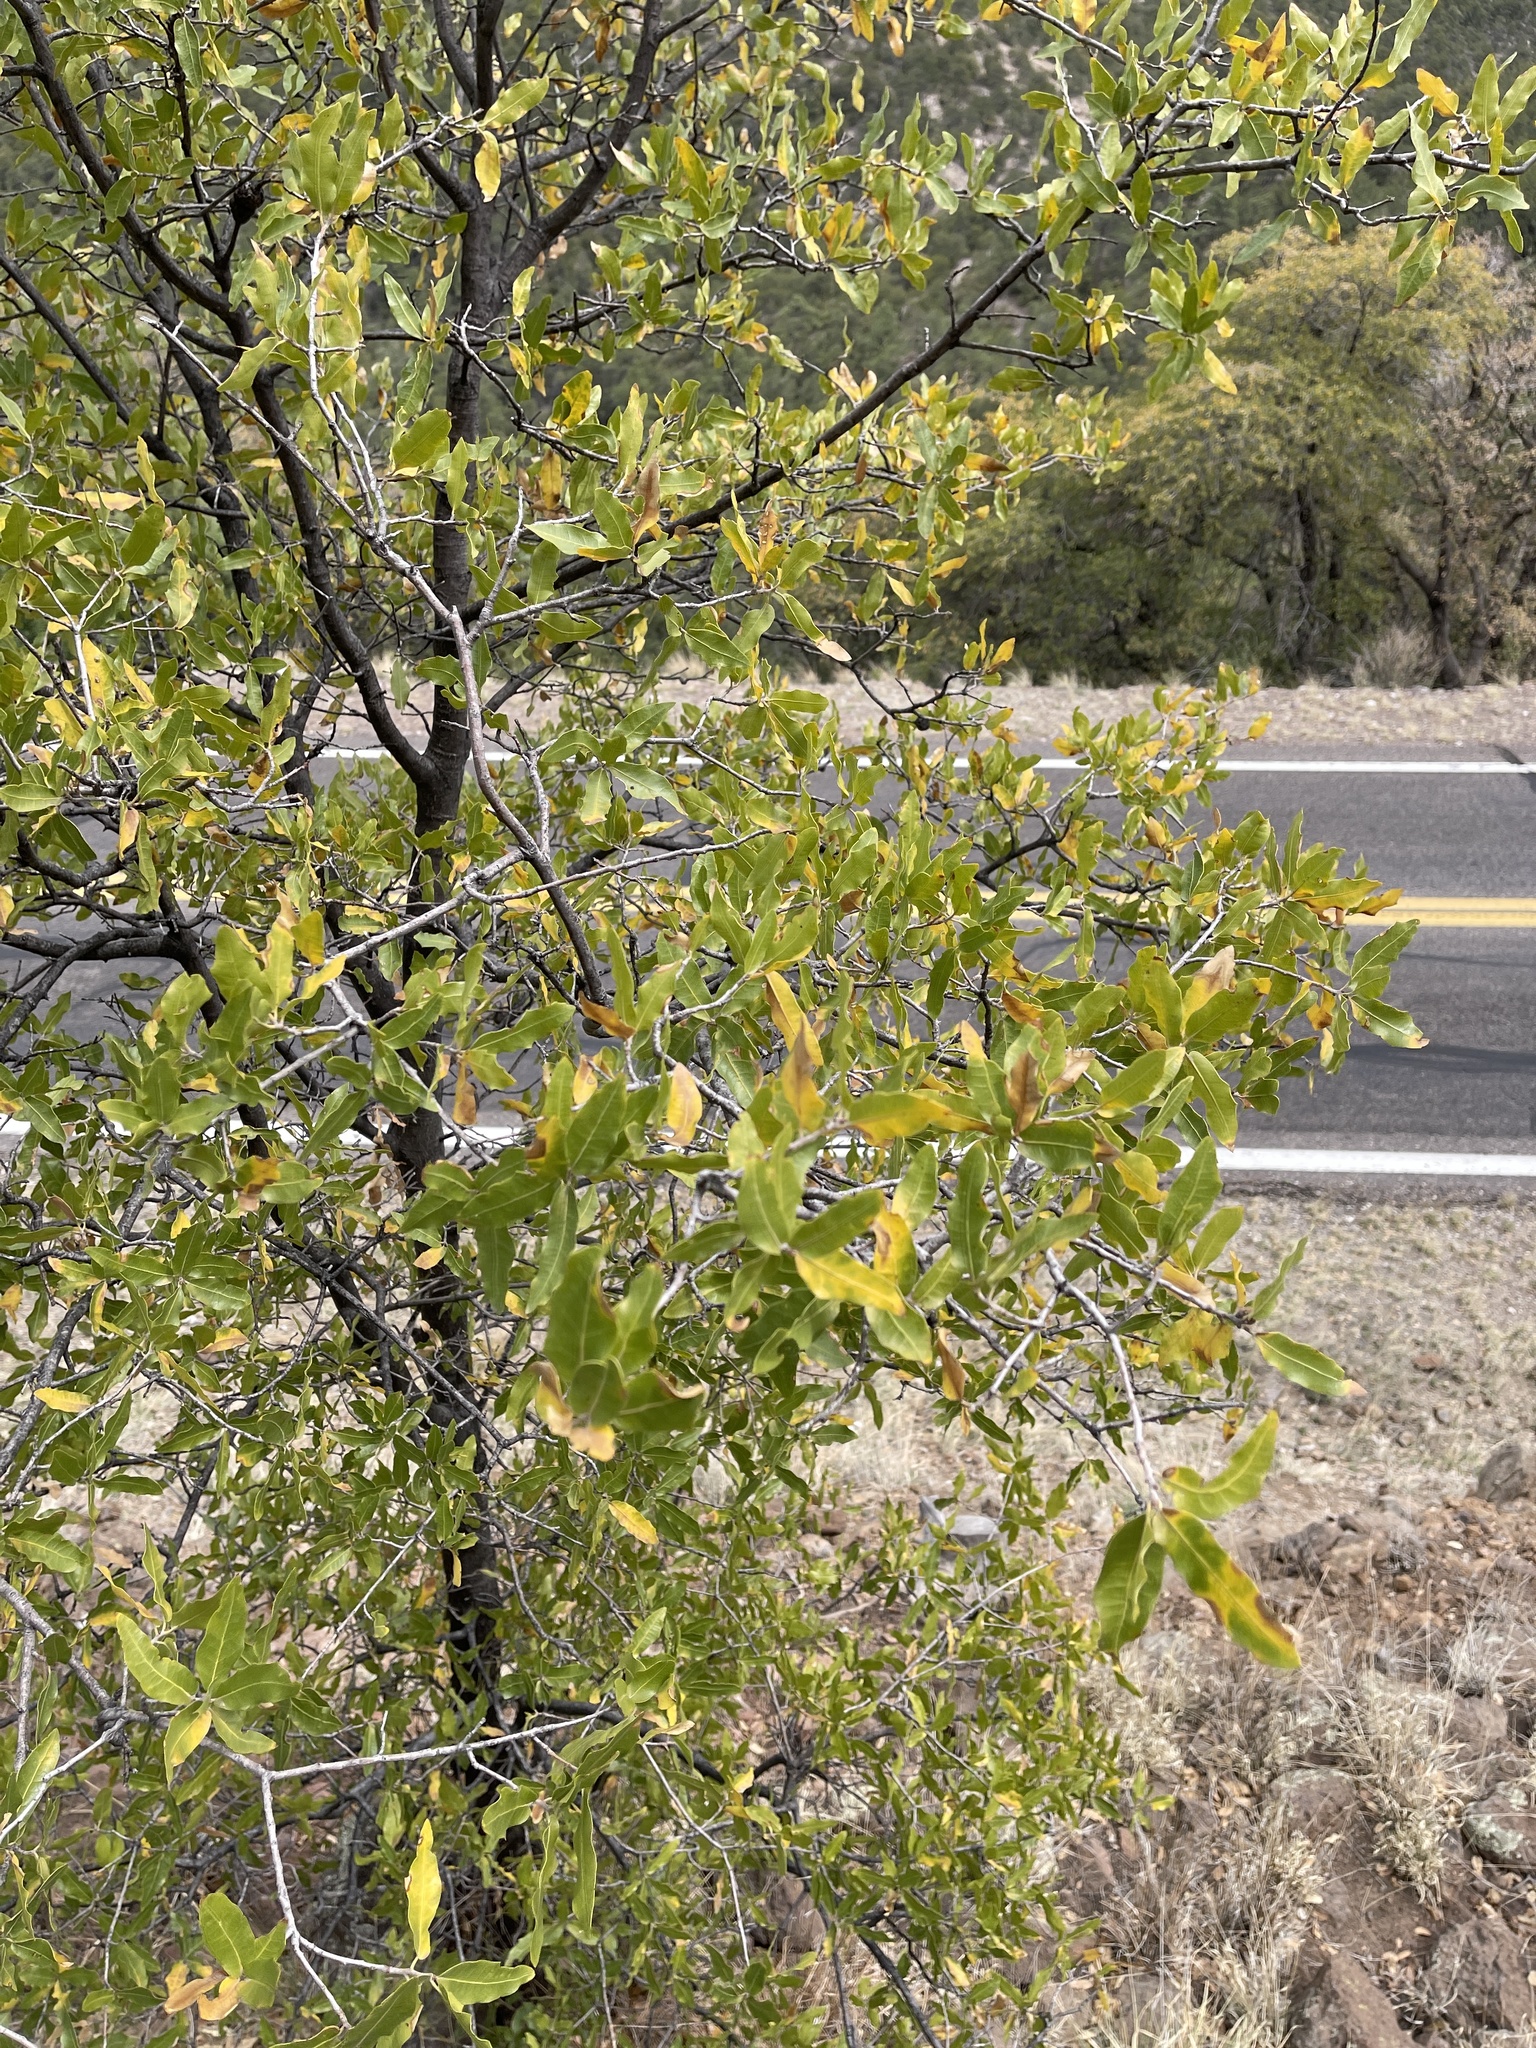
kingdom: Plantae
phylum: Tracheophyta
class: Magnoliopsida
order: Fagales
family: Fagaceae
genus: Quercus
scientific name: Quercus emoryi
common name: Emory oak
